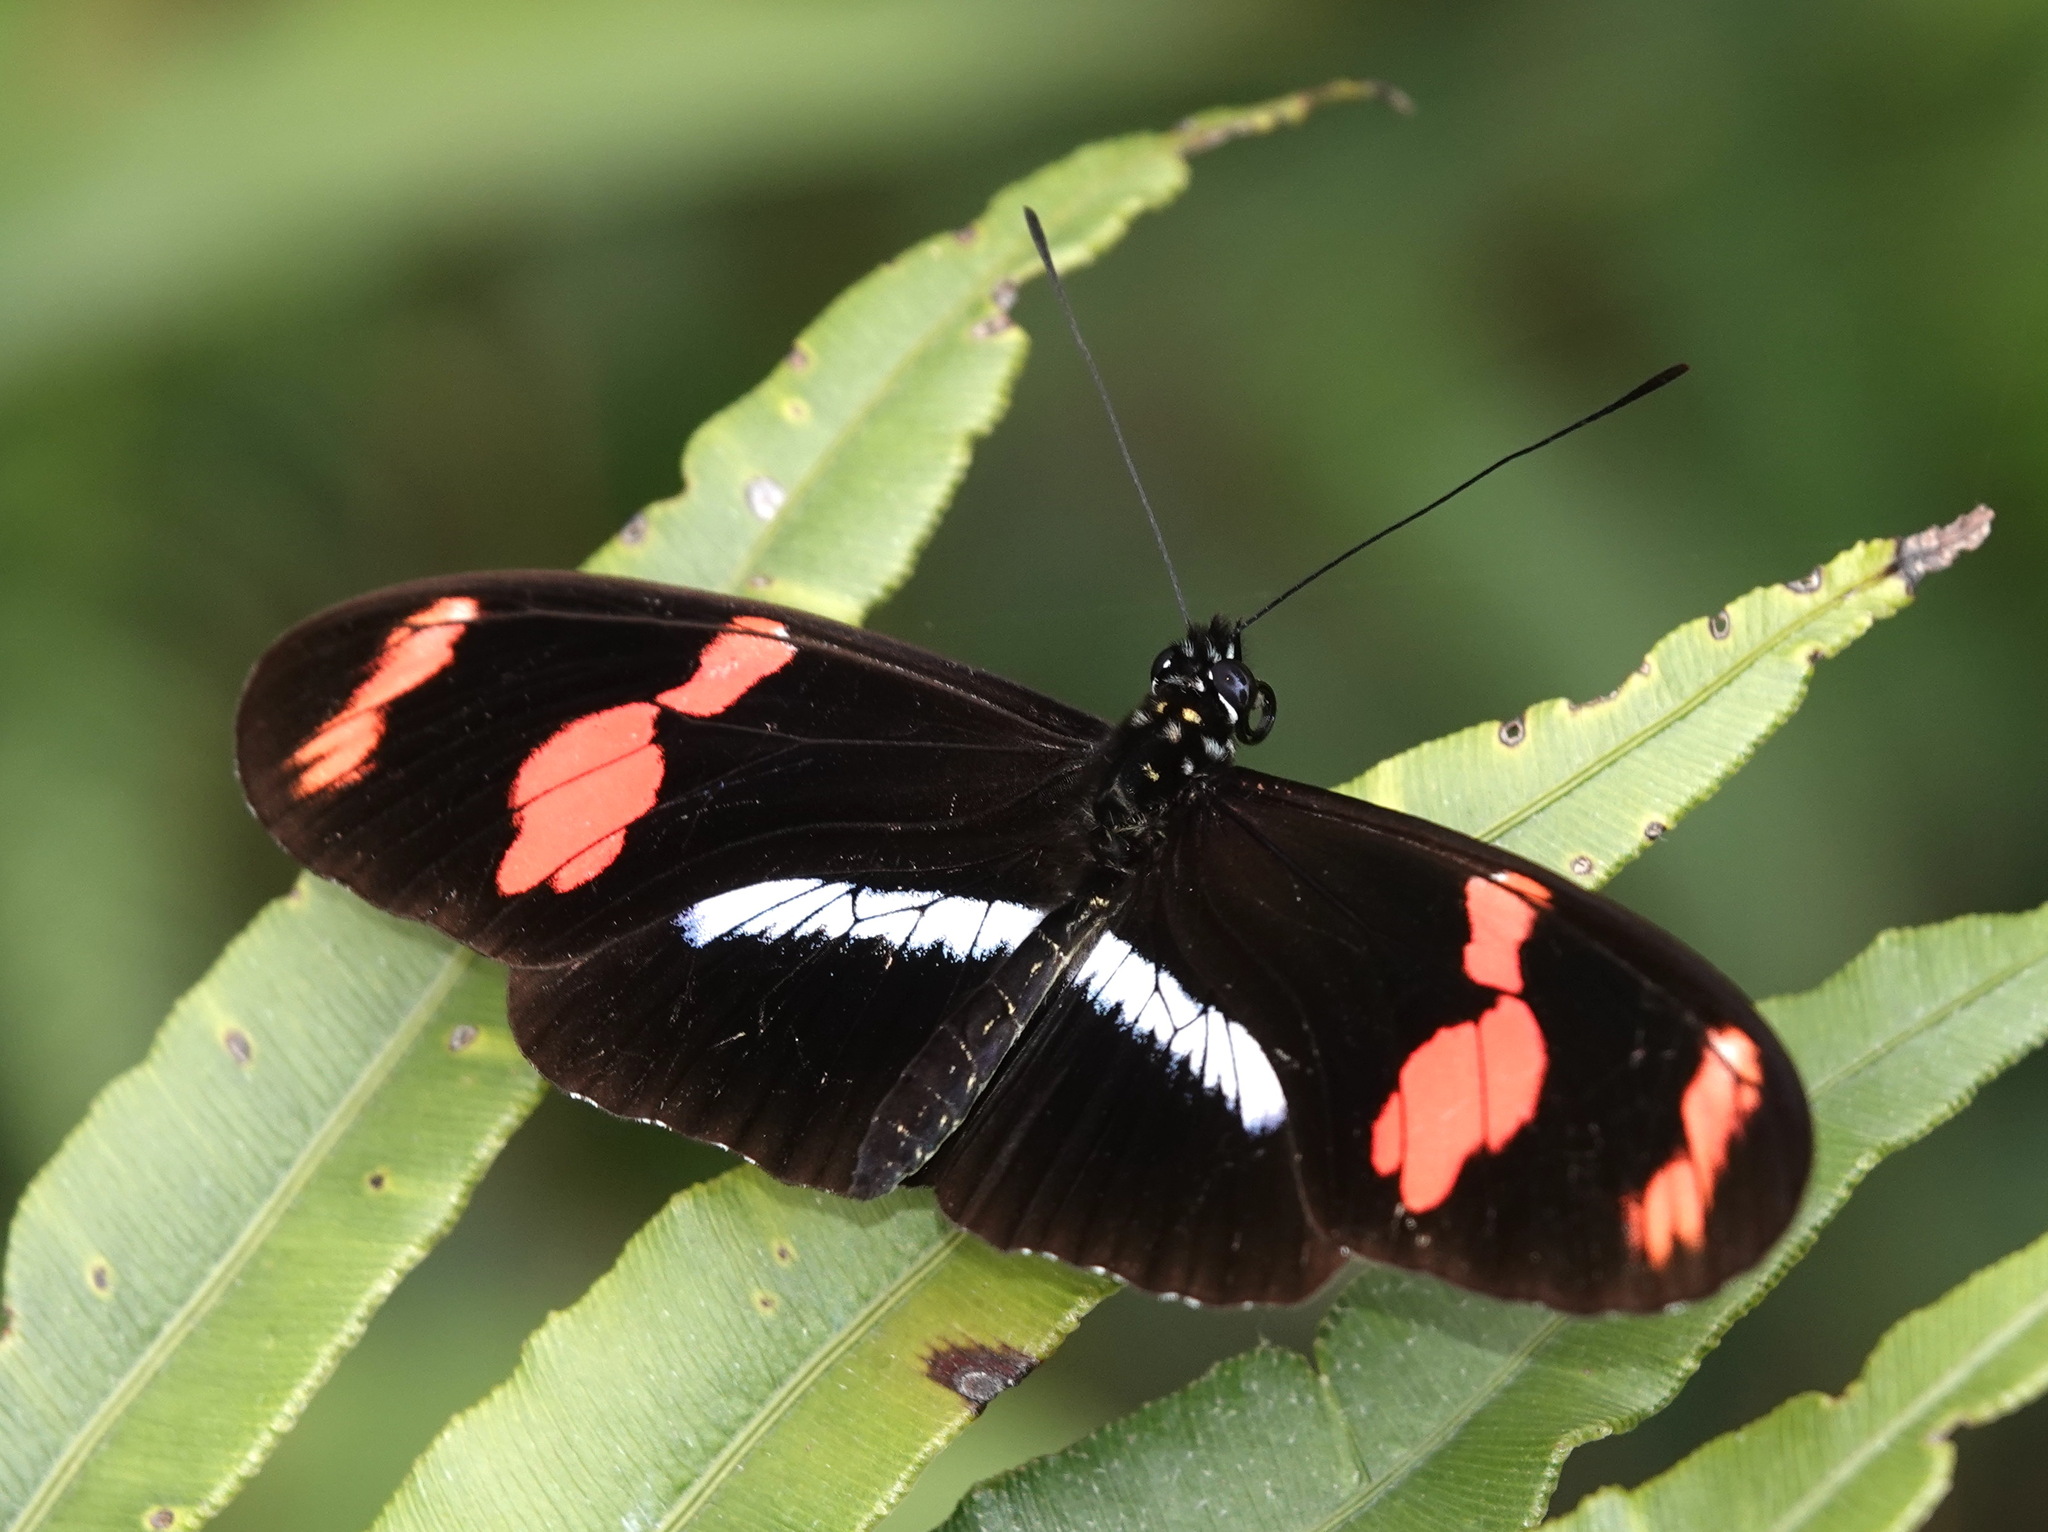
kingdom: Animalia
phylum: Arthropoda
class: Insecta
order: Lepidoptera
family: Nymphalidae
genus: Heliconius
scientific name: Heliconius telesiphe
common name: Telesiphe longwing
